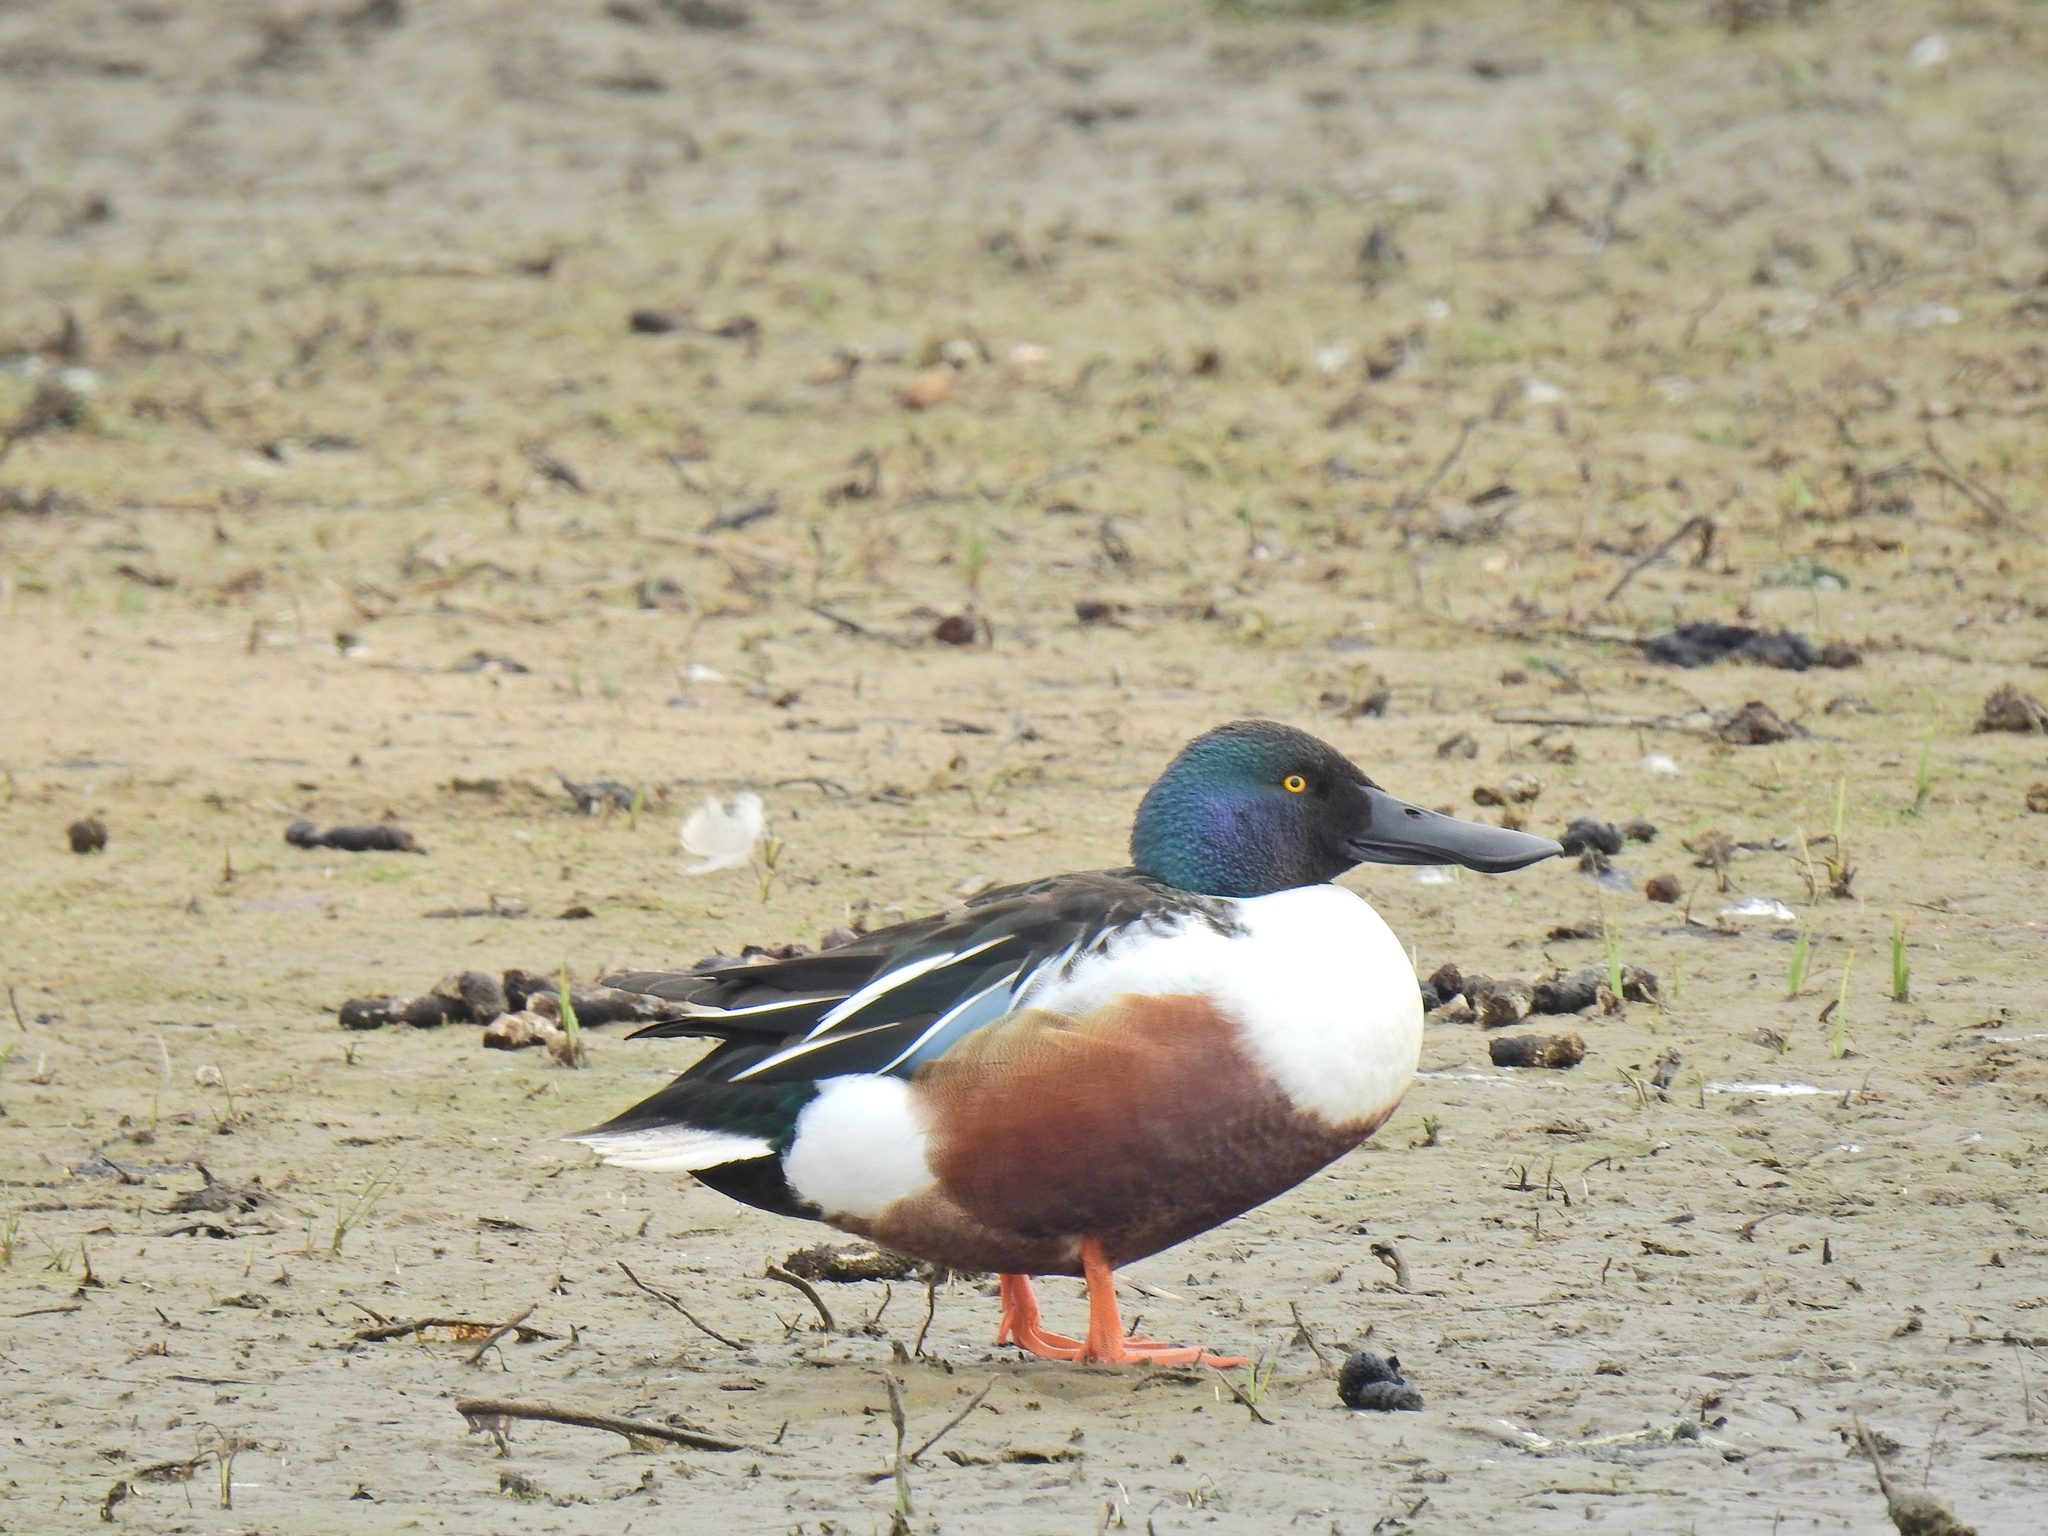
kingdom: Animalia
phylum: Chordata
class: Aves
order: Anseriformes
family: Anatidae
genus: Spatula
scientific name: Spatula clypeata
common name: Northern shoveler
